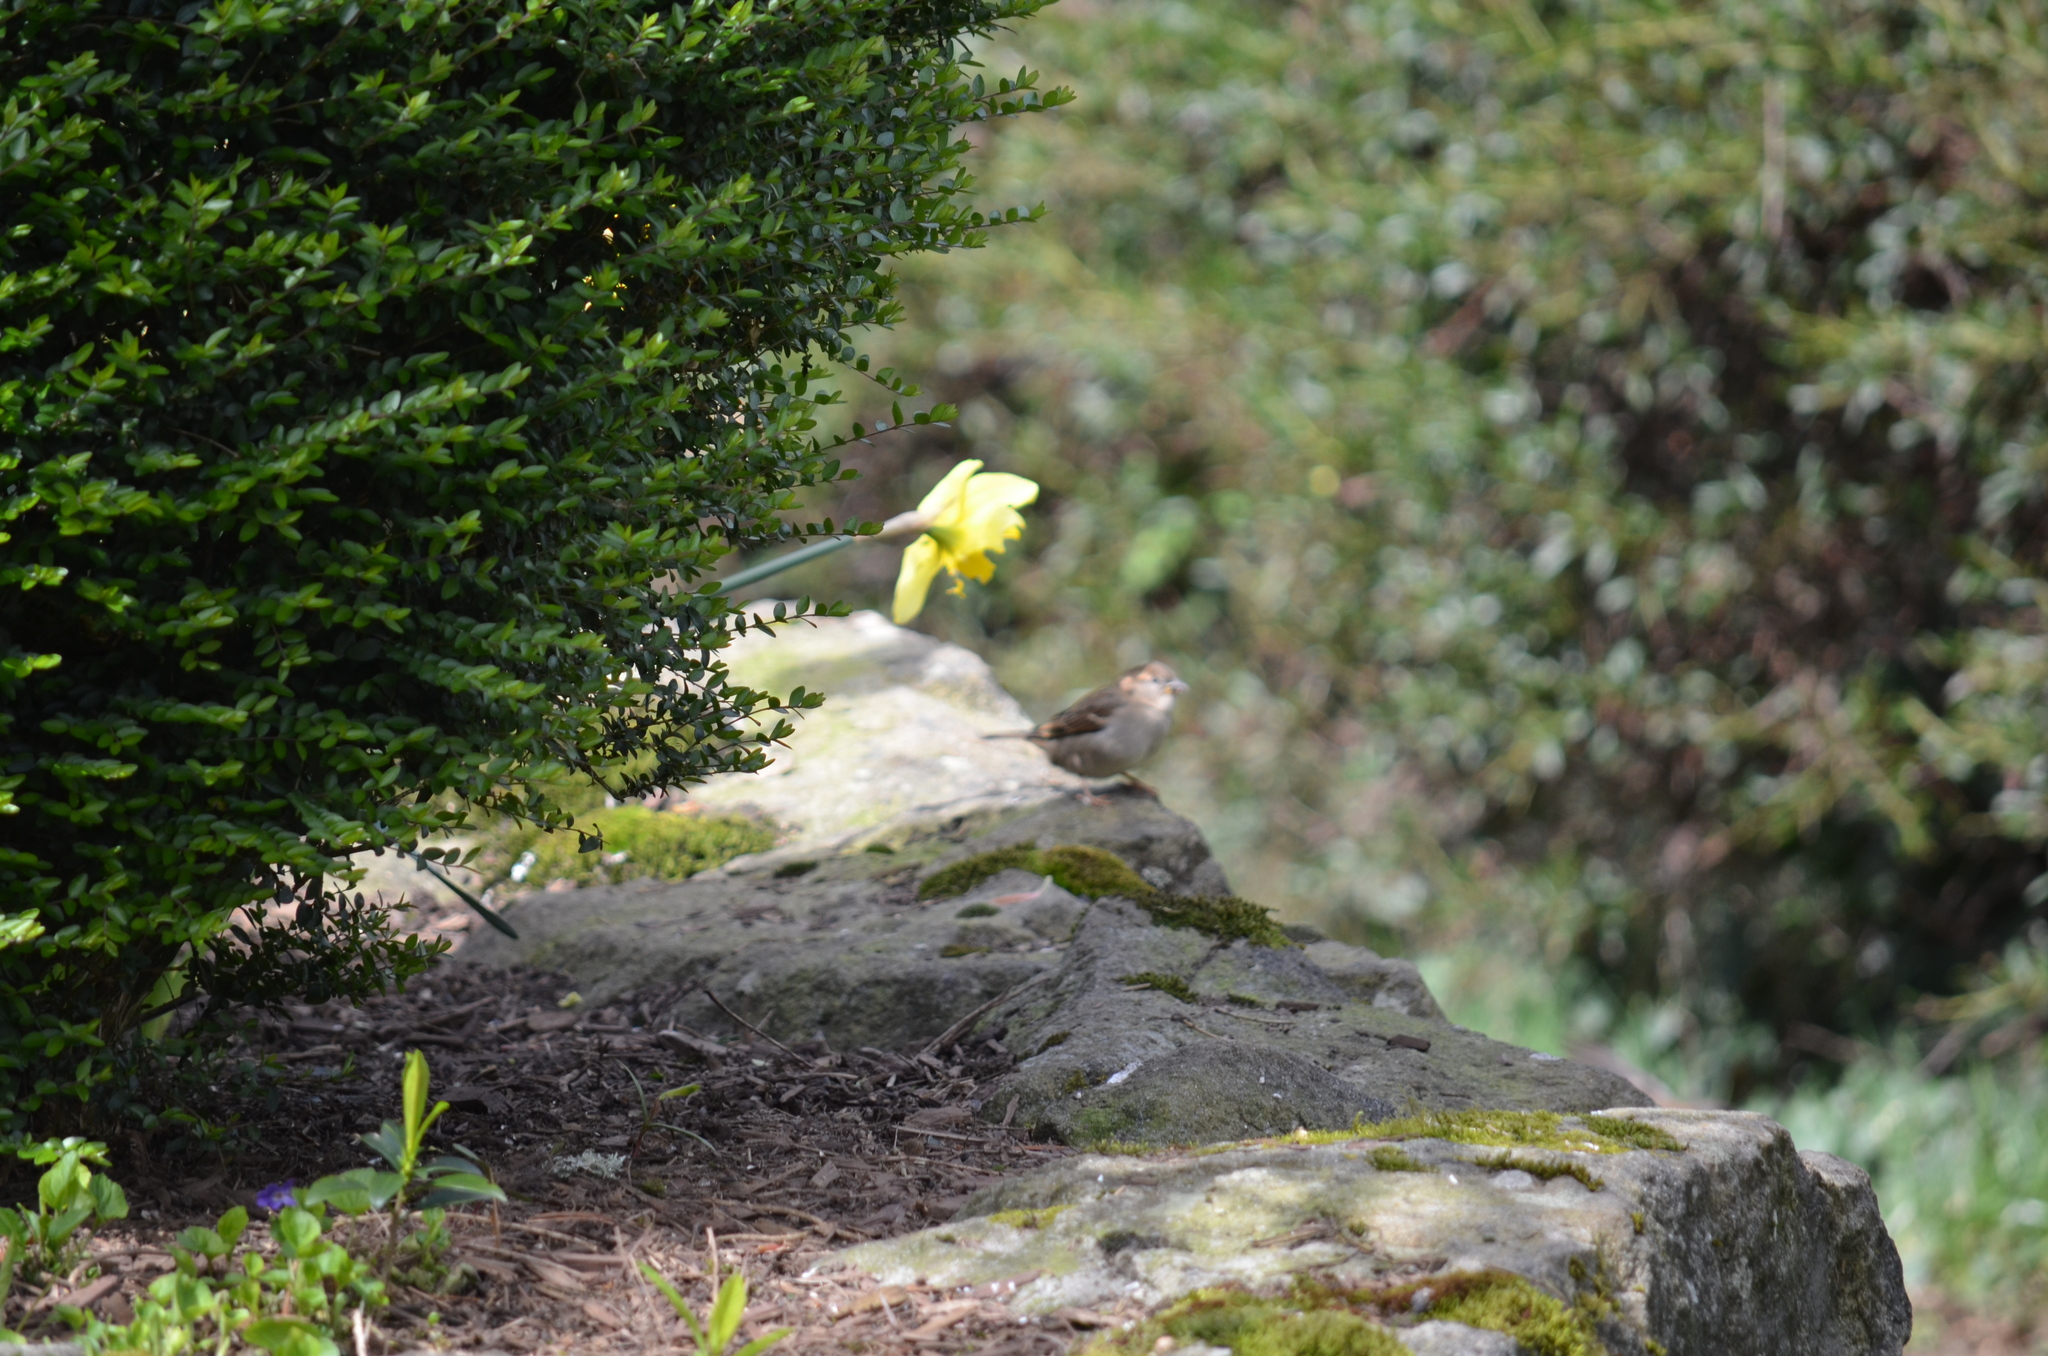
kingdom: Animalia
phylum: Chordata
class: Aves
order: Passeriformes
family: Passeridae
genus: Passer
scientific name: Passer domesticus
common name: House sparrow
